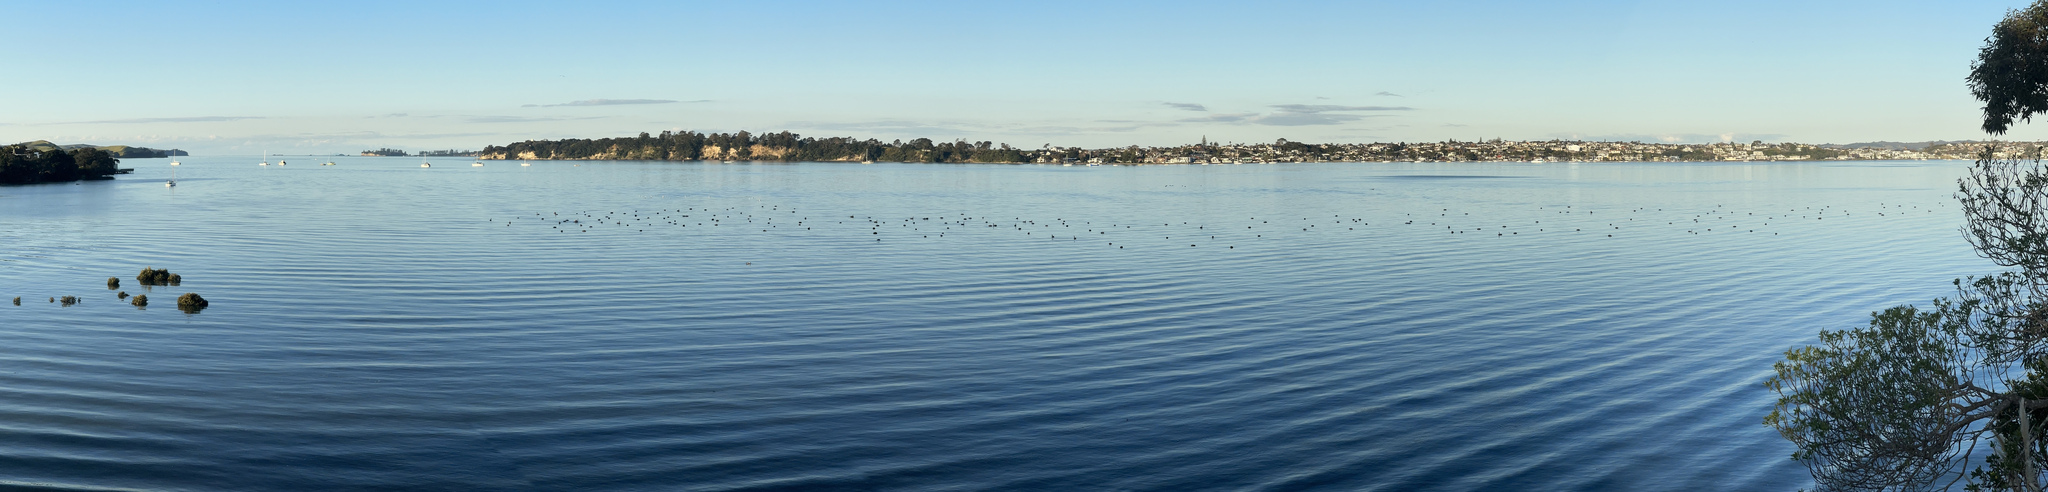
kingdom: Animalia
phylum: Chordata
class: Aves
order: Anseriformes
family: Anatidae
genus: Cygnus
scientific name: Cygnus atratus
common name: Black swan
